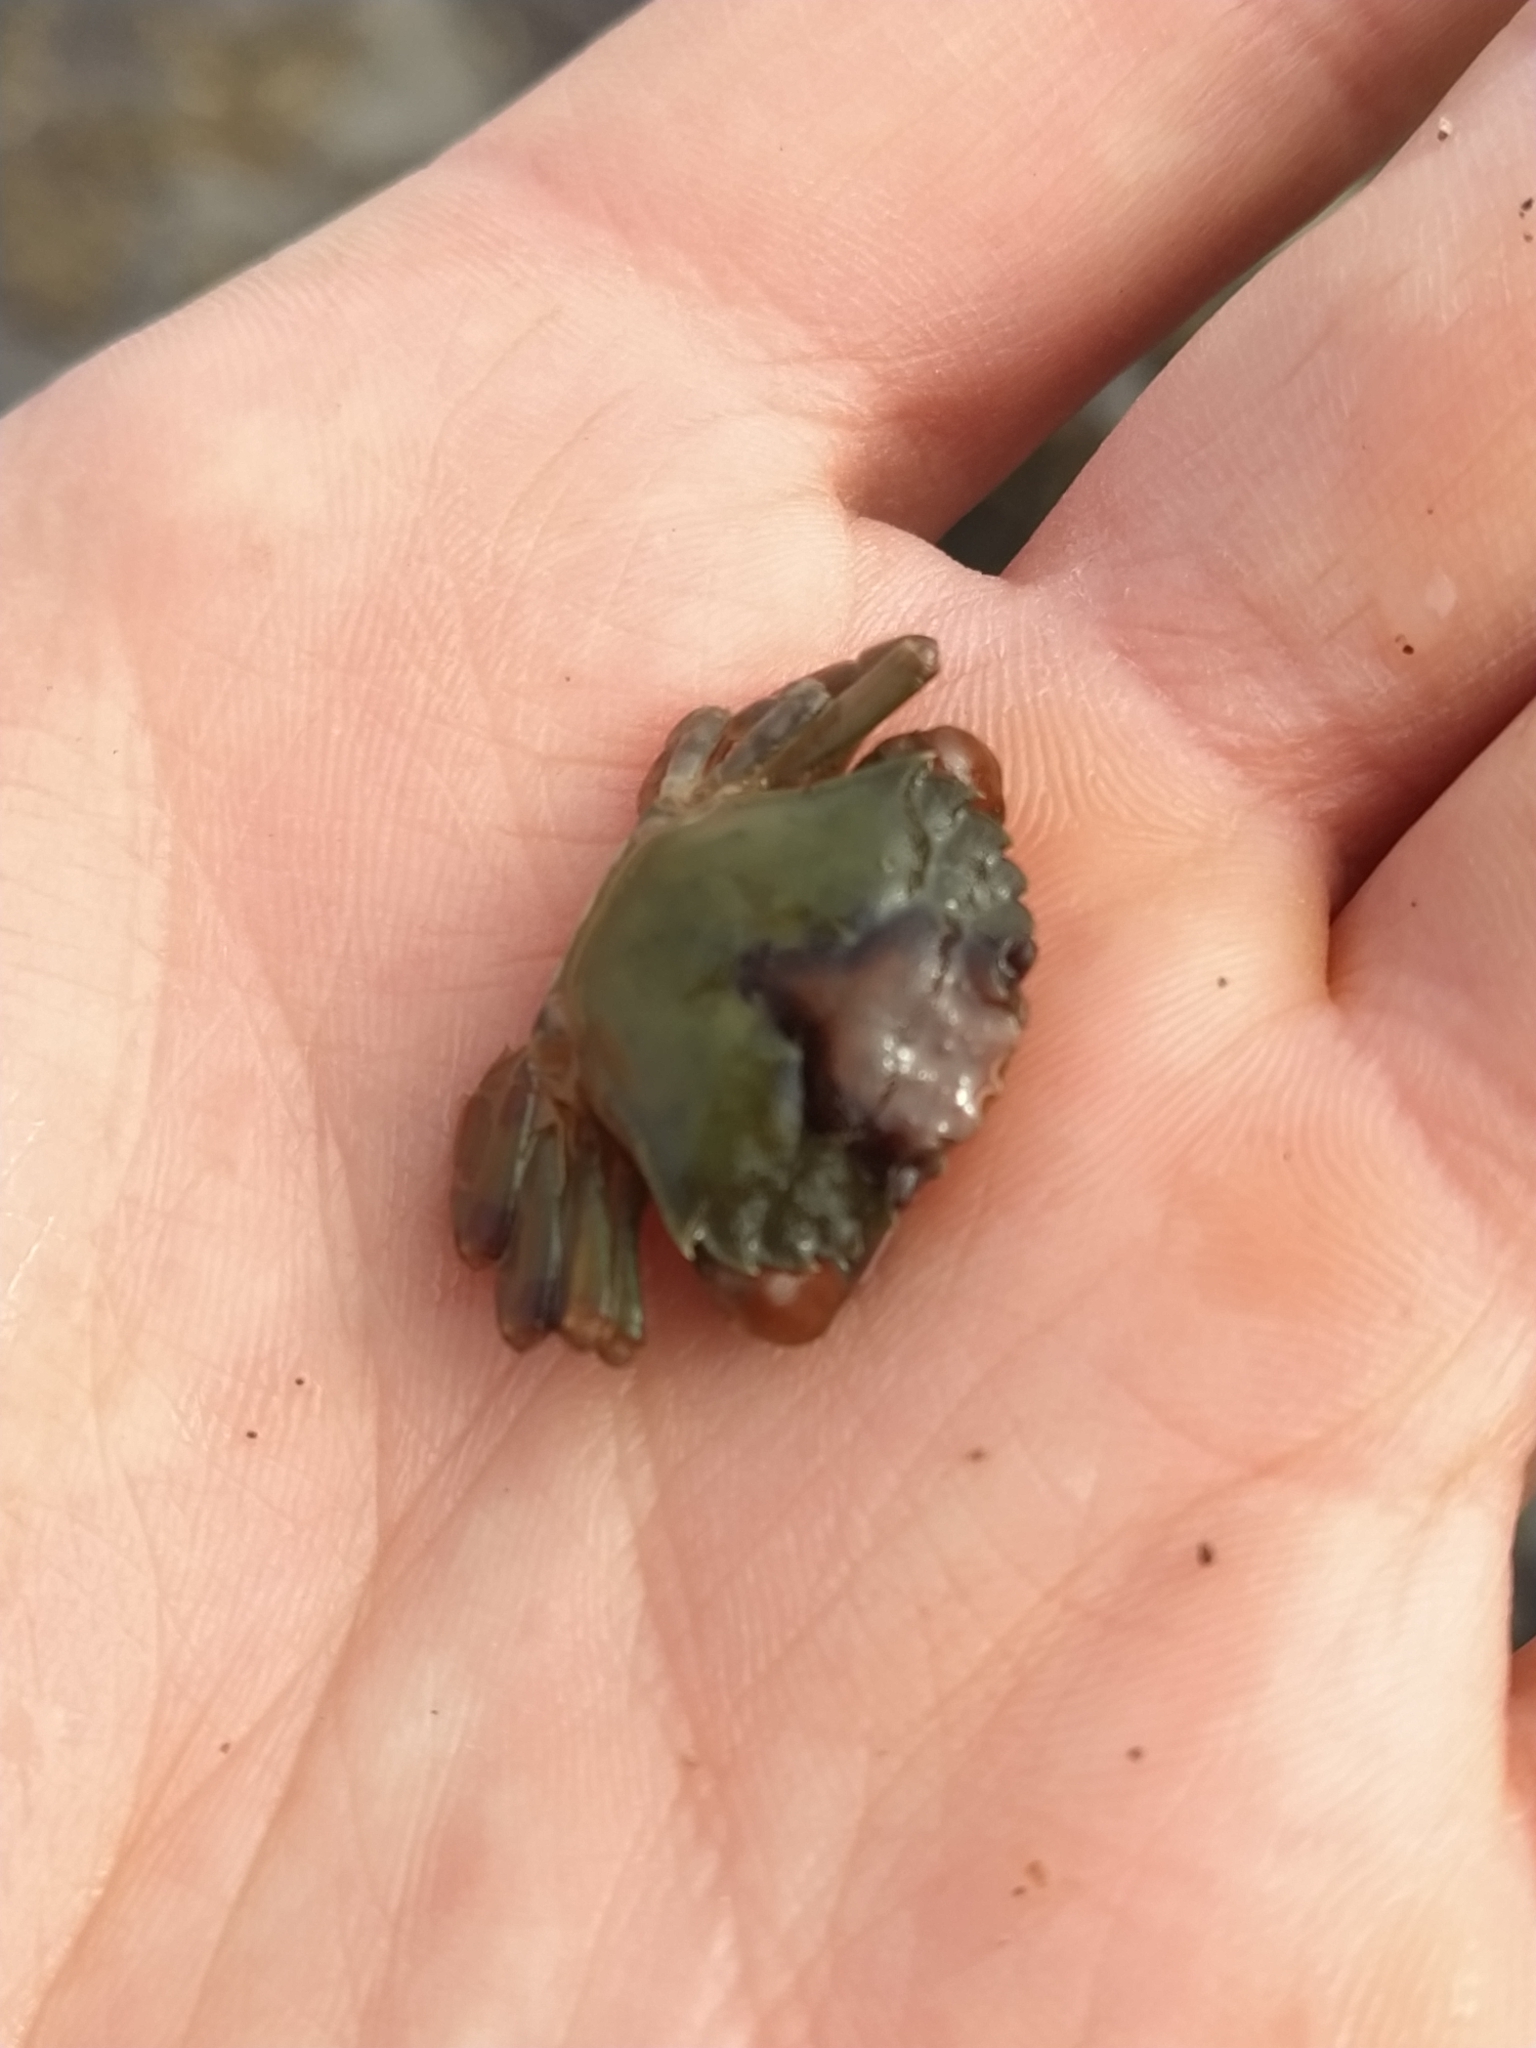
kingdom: Animalia
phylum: Arthropoda
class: Malacostraca
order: Decapoda
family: Carcinidae
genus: Carcinus
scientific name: Carcinus maenas
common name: European green crab
